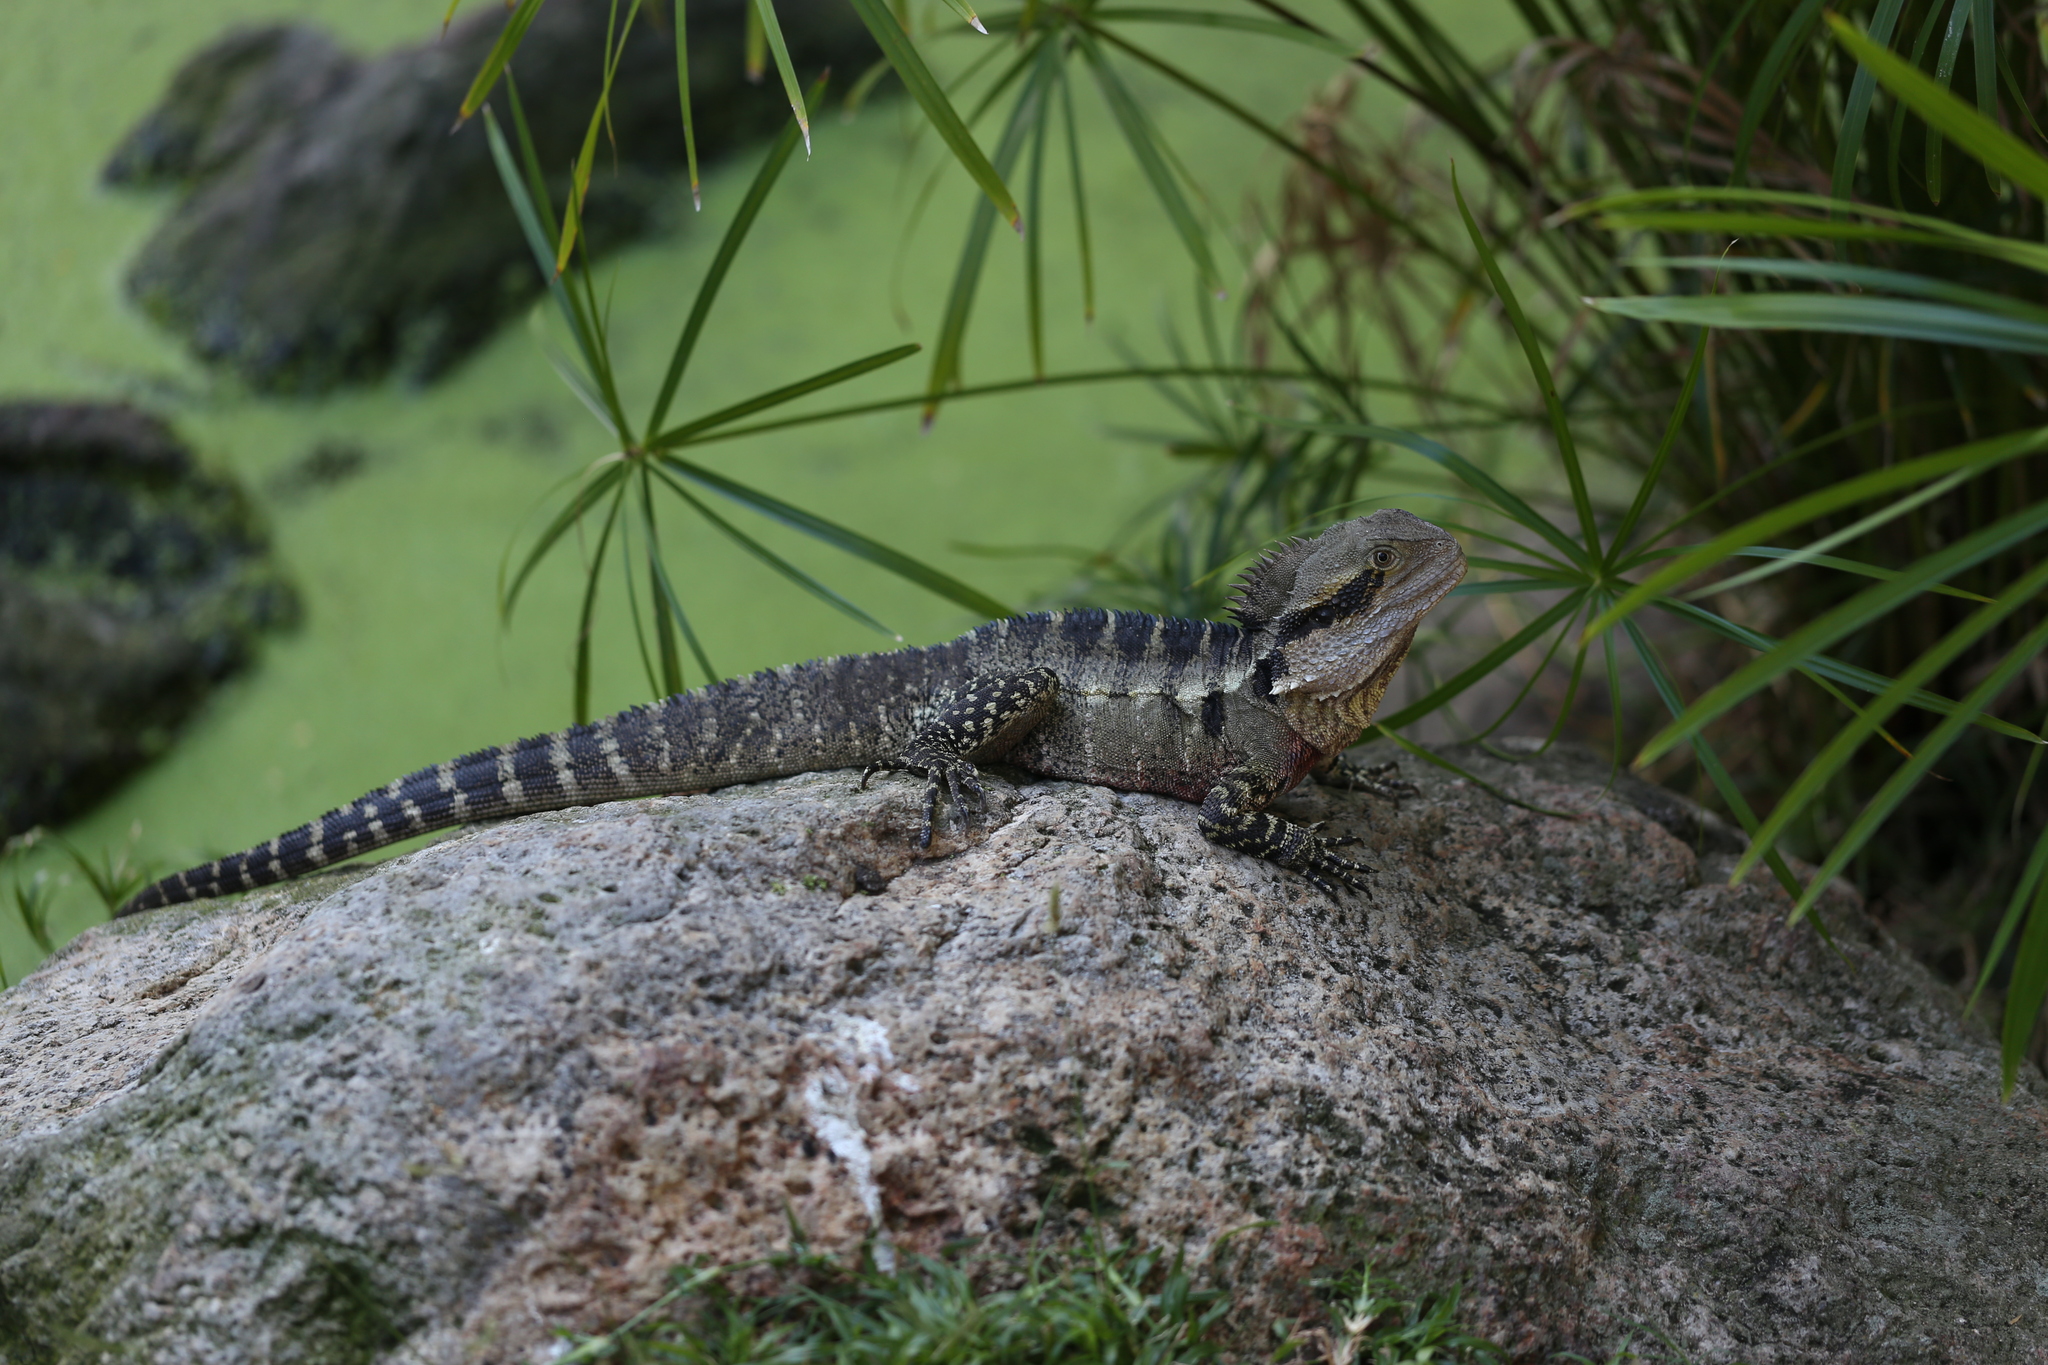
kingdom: Animalia
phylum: Chordata
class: Squamata
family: Agamidae
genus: Intellagama
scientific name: Intellagama lesueurii
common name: Eastern water dragon
